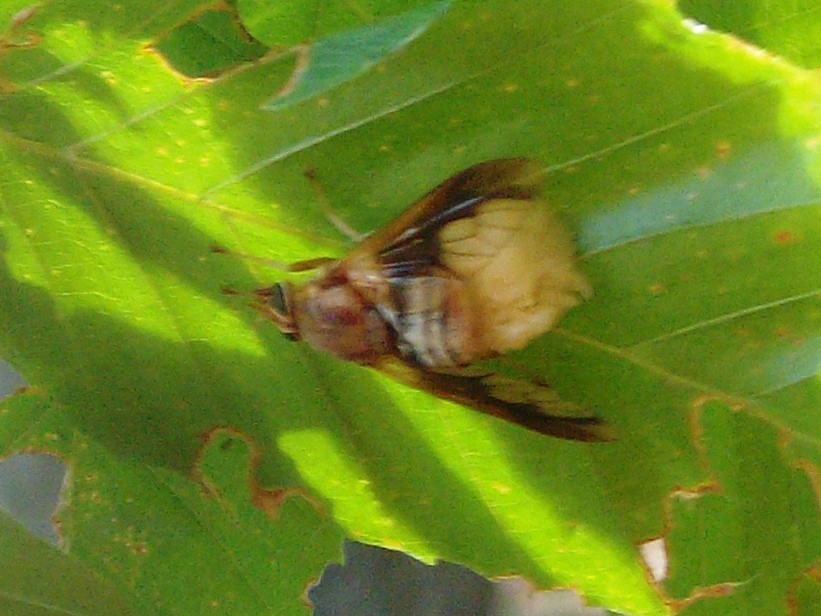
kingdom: Animalia
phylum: Arthropoda
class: Insecta
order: Diptera
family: Tabanidae
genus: Goniops
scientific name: Goniops chrysocoma
